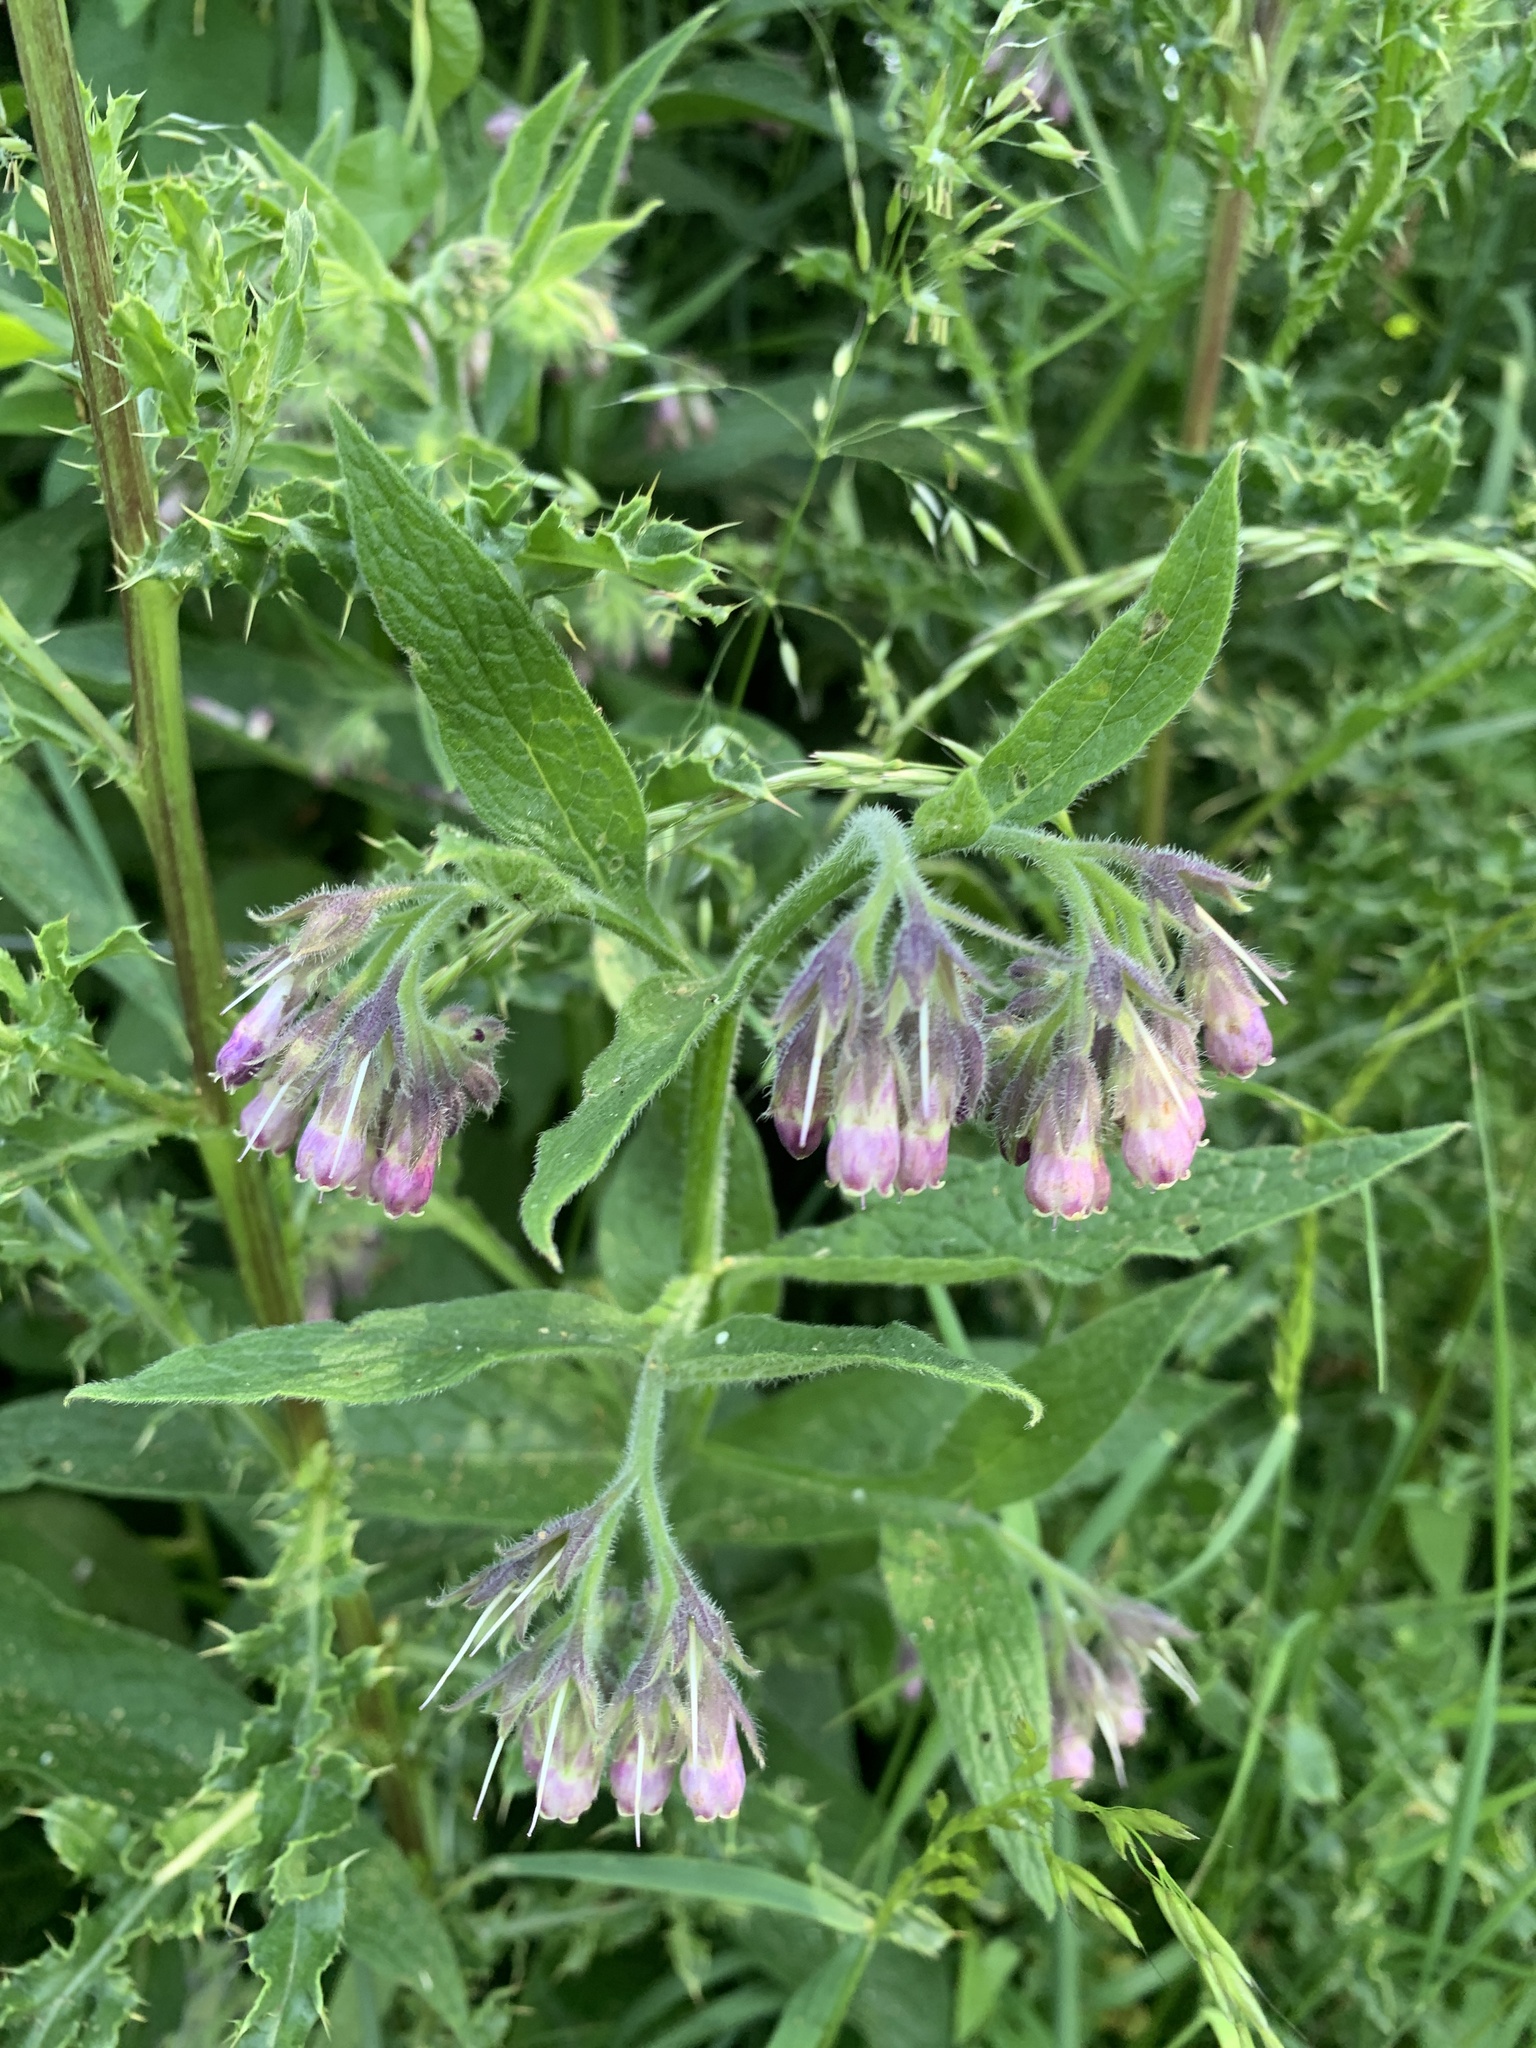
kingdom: Plantae
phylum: Tracheophyta
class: Magnoliopsida
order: Boraginales
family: Boraginaceae
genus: Symphytum
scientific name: Symphytum officinale
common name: Common comfrey
